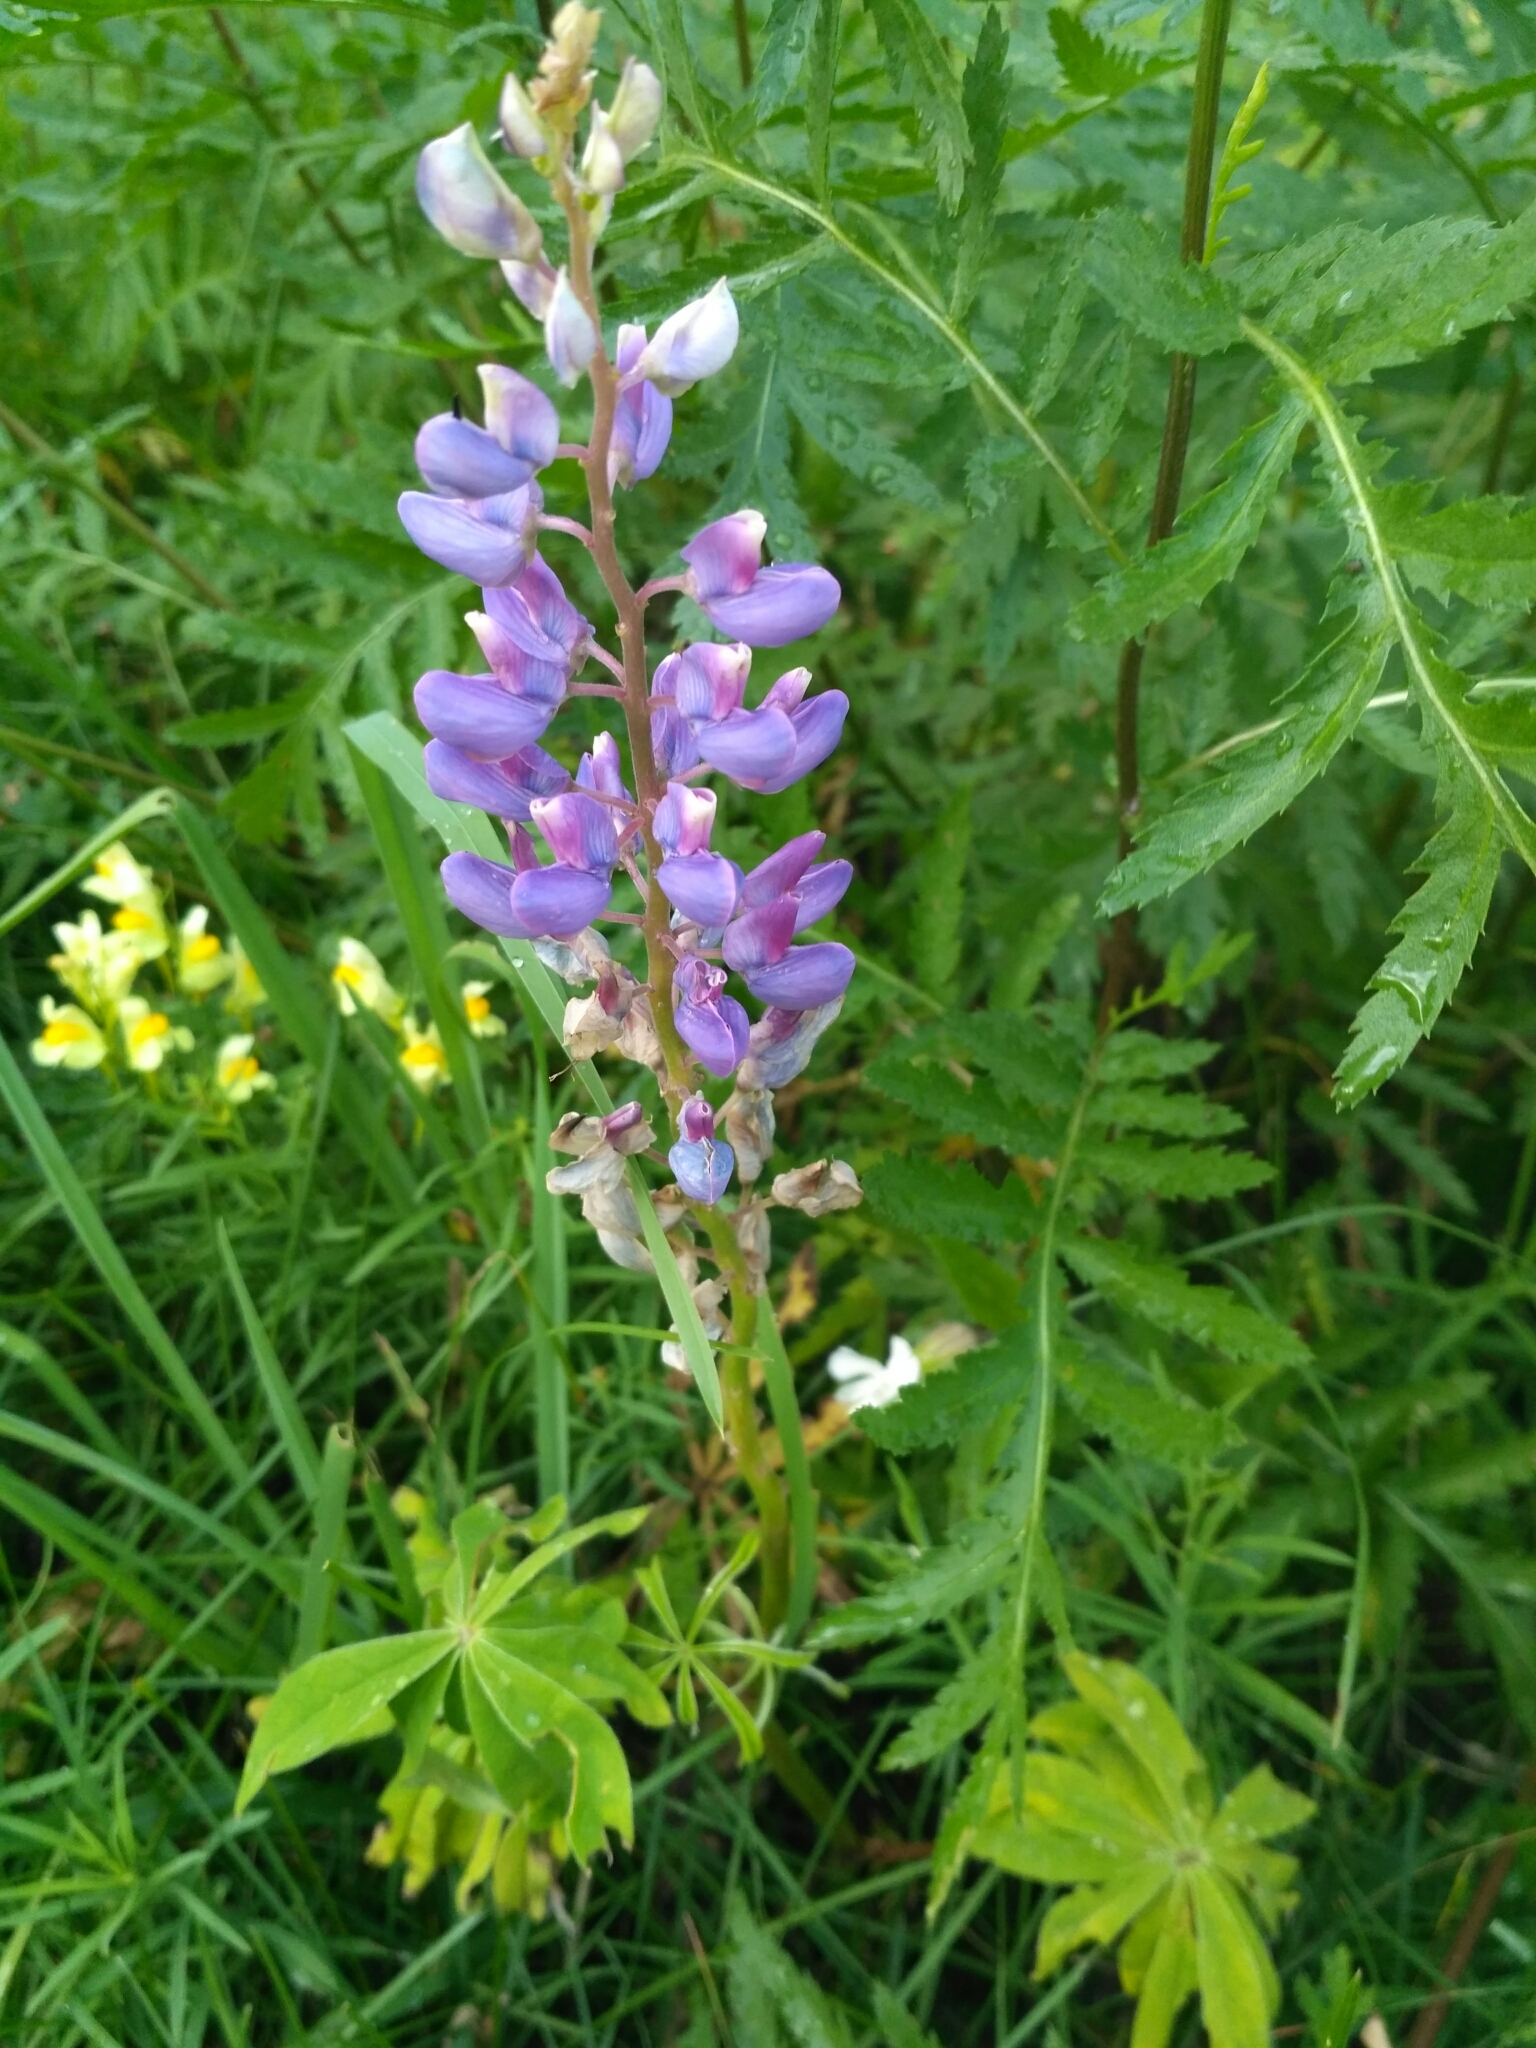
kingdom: Plantae
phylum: Tracheophyta
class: Magnoliopsida
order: Fabales
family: Fabaceae
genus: Lupinus
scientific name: Lupinus polyphyllus
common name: Garden lupin
